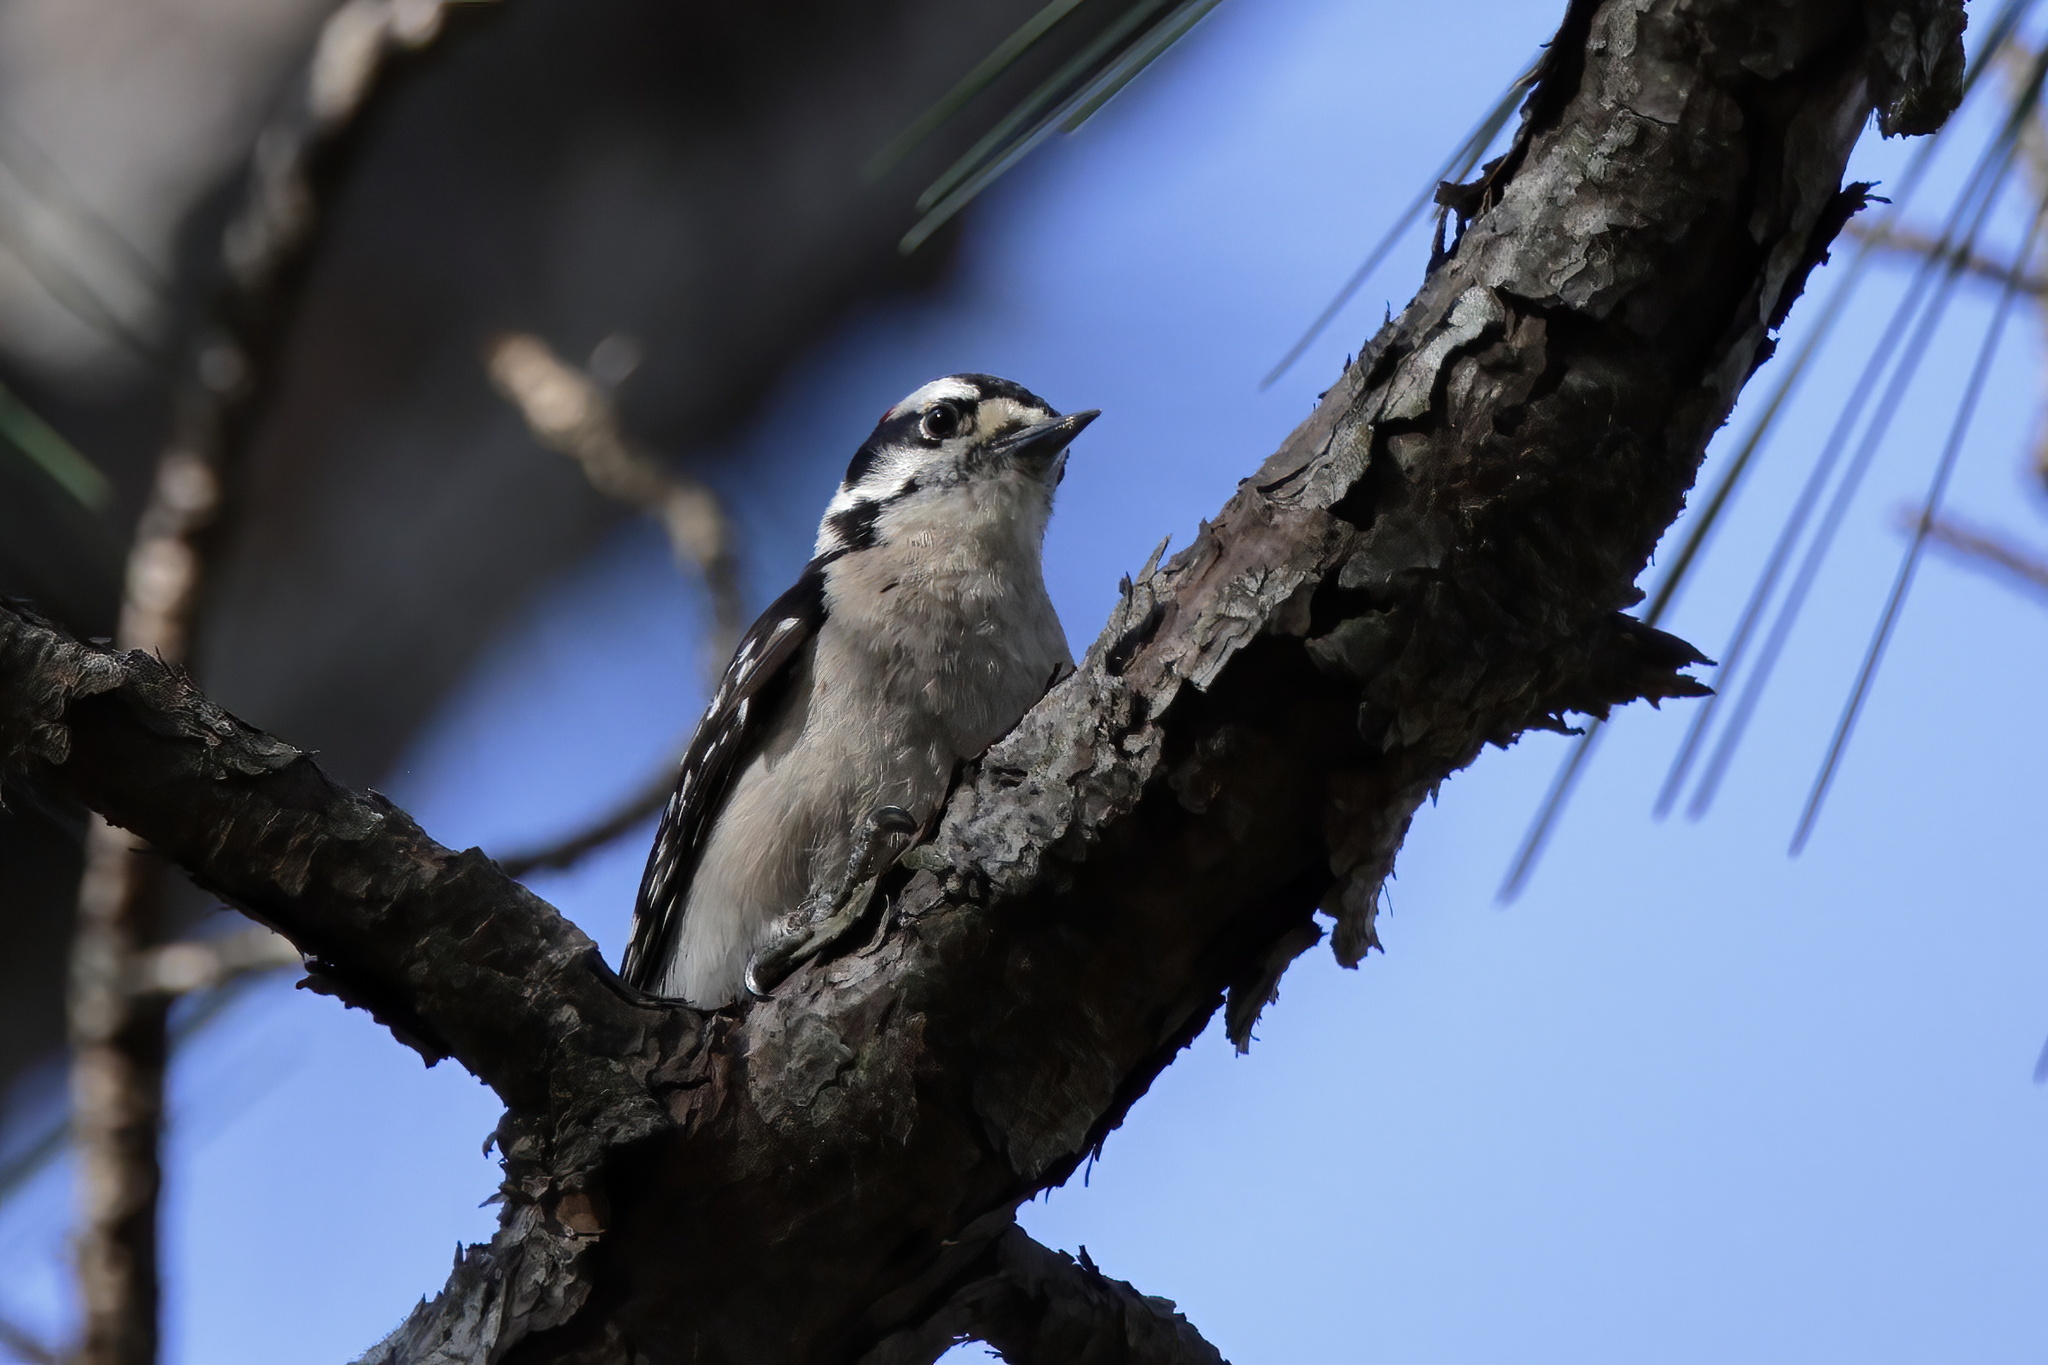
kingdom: Animalia
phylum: Chordata
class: Aves
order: Piciformes
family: Picidae
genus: Dryobates
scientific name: Dryobates pubescens
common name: Downy woodpecker
